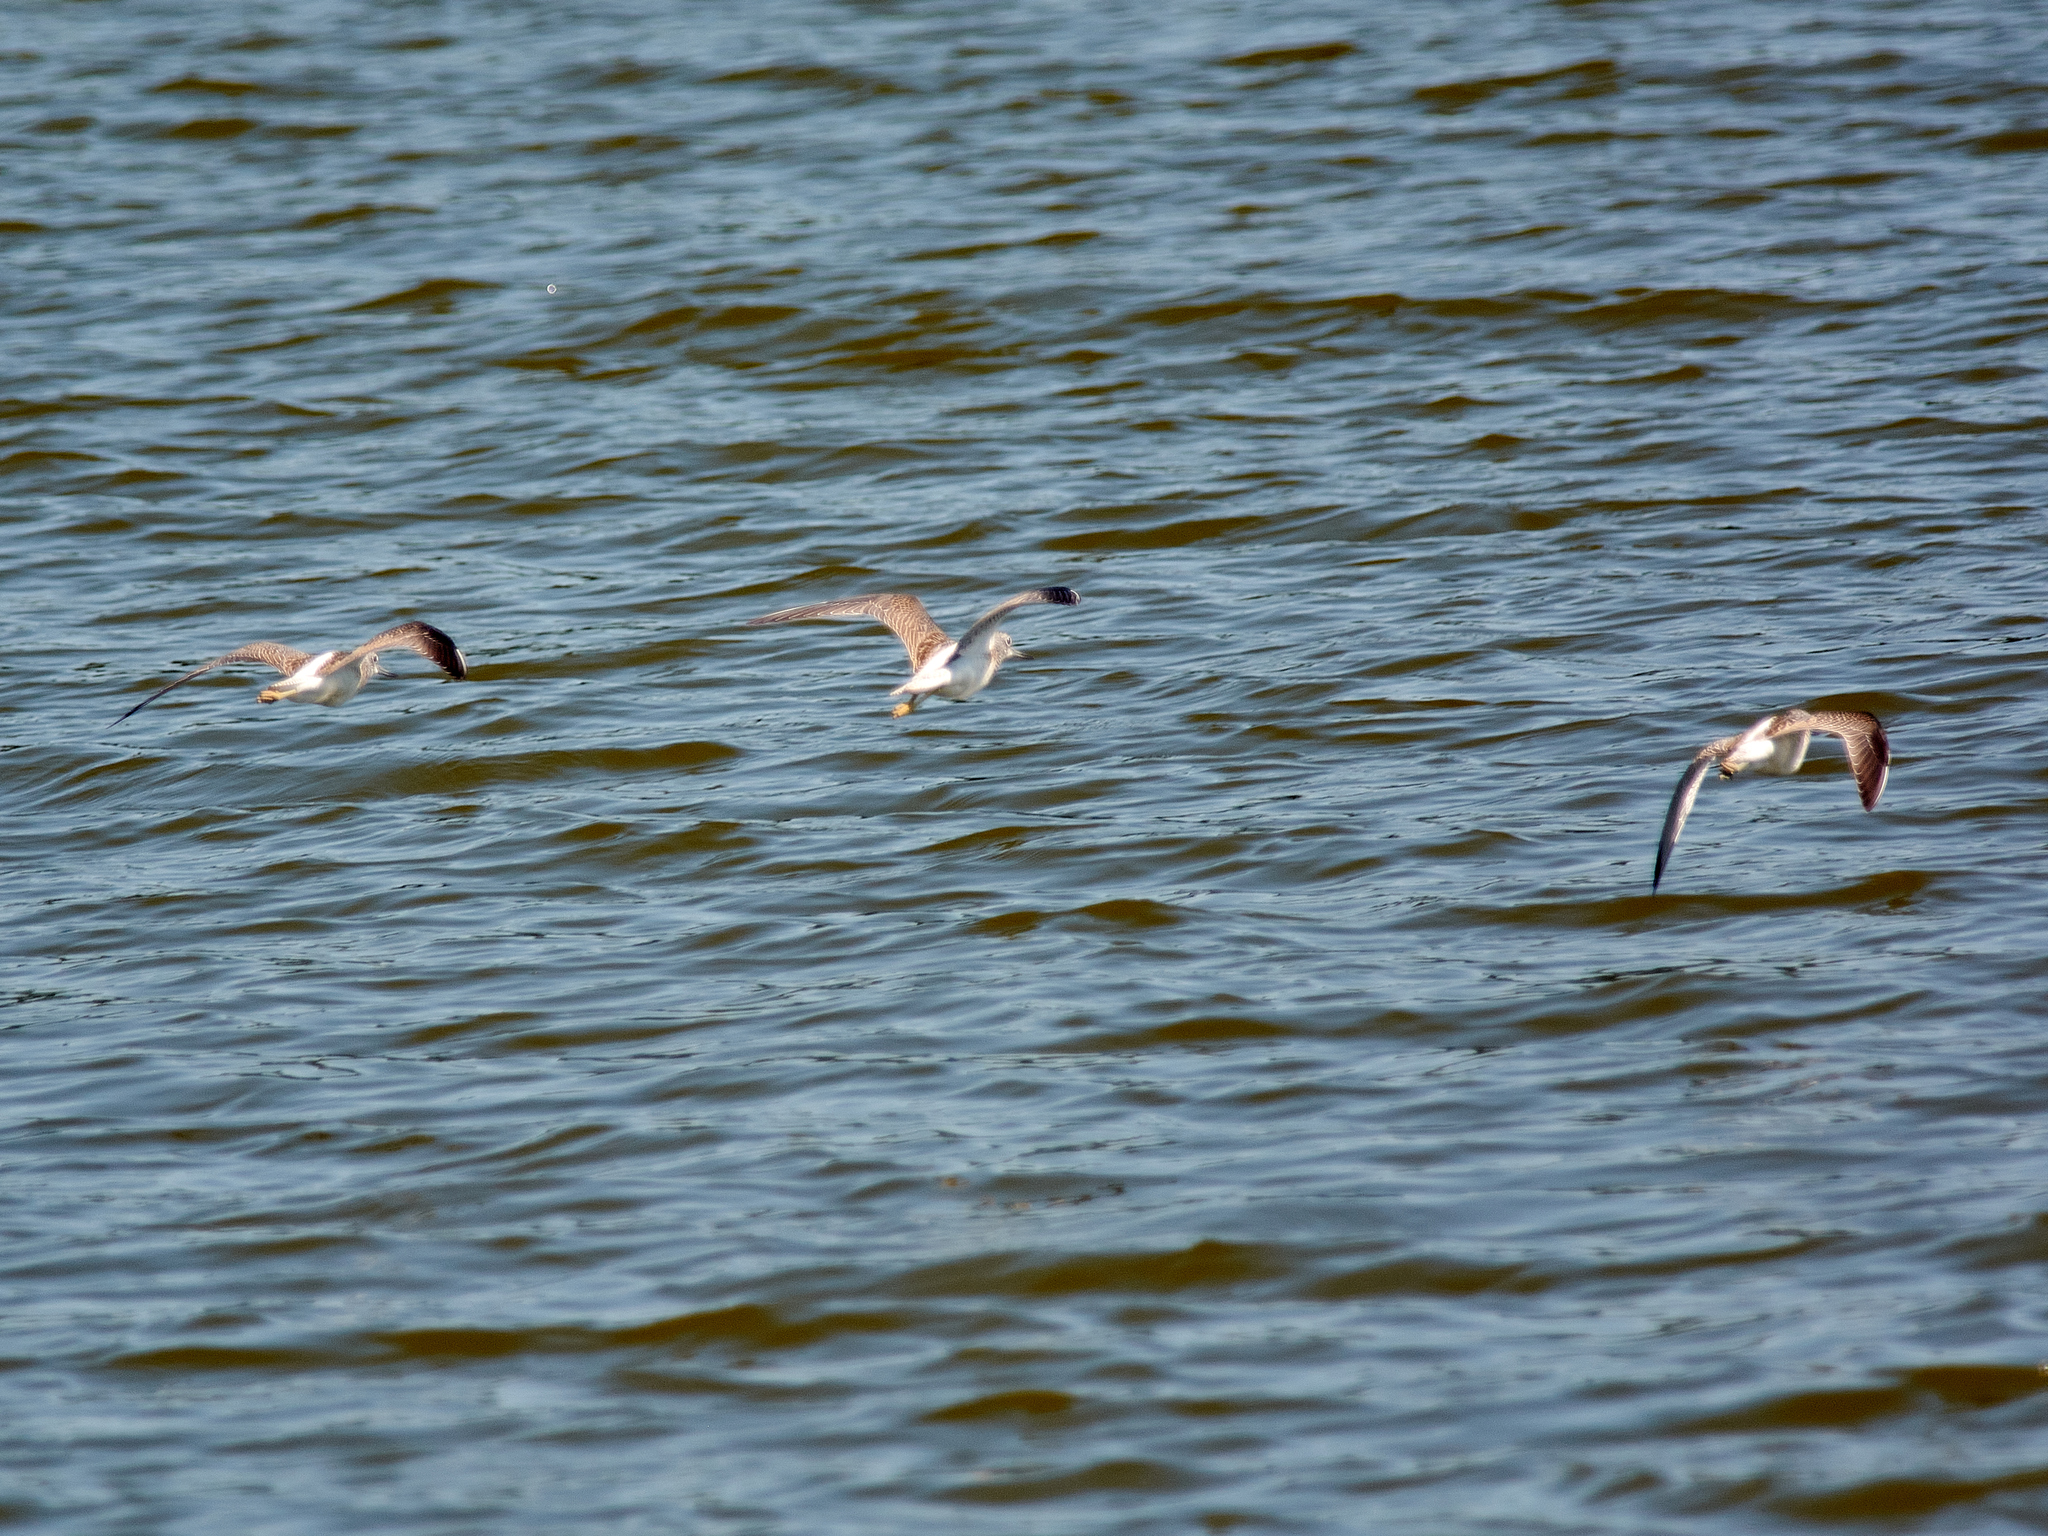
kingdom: Animalia
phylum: Chordata
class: Aves
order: Charadriiformes
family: Scolopacidae
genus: Tringa
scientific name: Tringa nebularia
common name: Common greenshank
